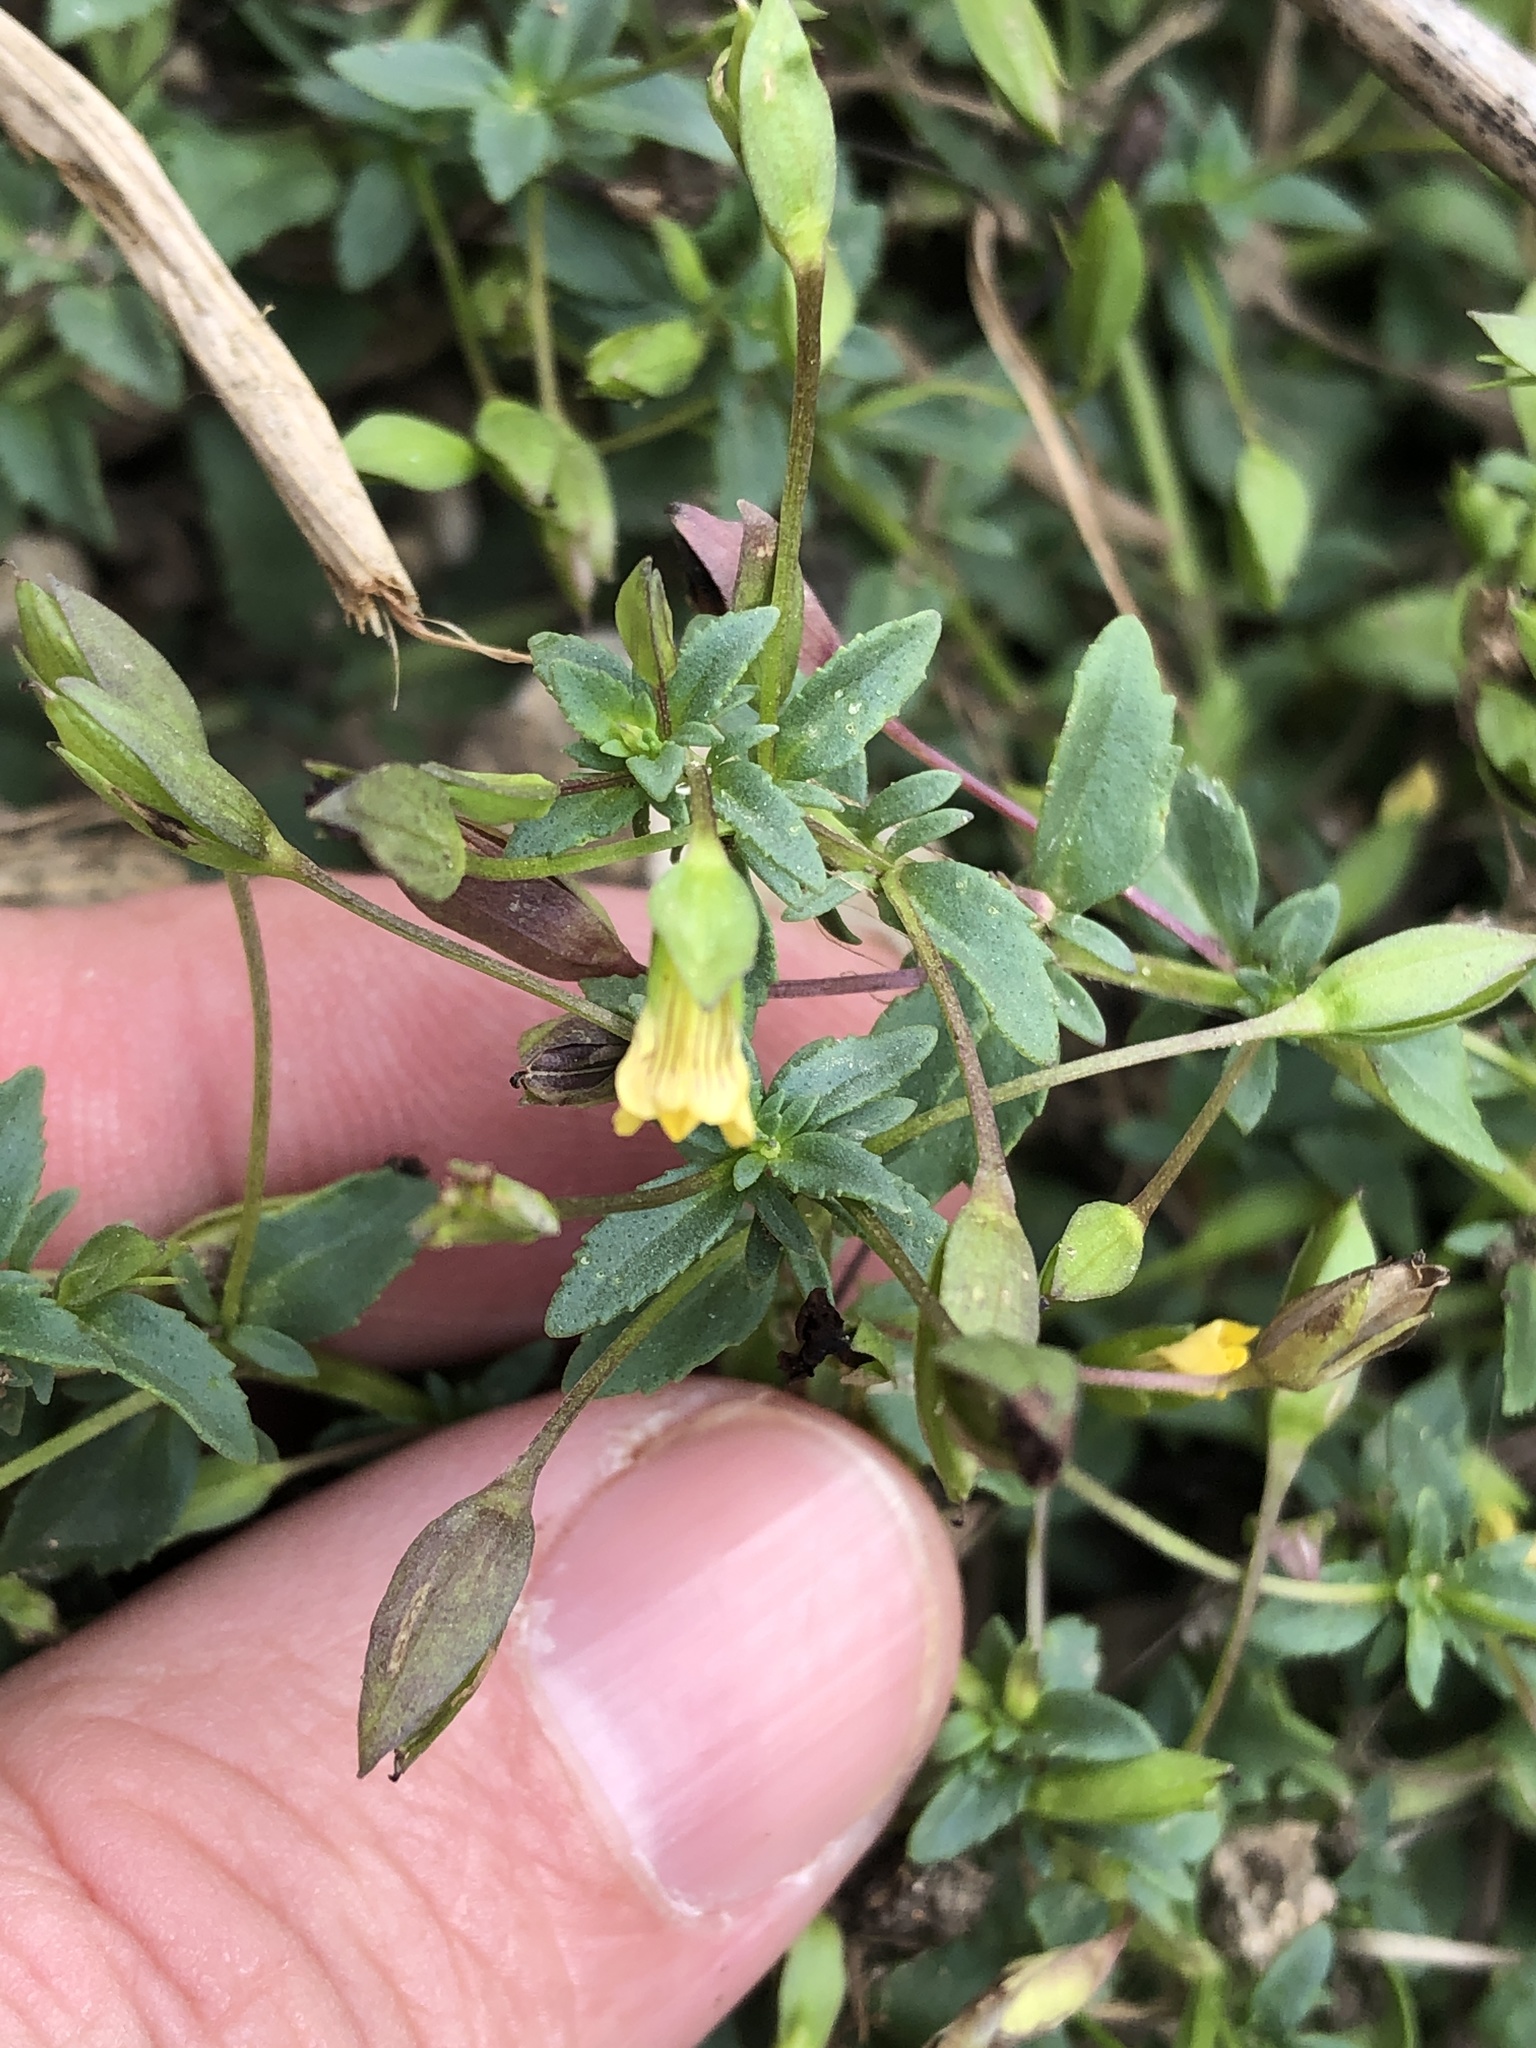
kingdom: Plantae
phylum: Tracheophyta
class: Magnoliopsida
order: Lamiales
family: Plantaginaceae
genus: Mecardonia
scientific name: Mecardonia procumbens
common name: Baby jump-up
